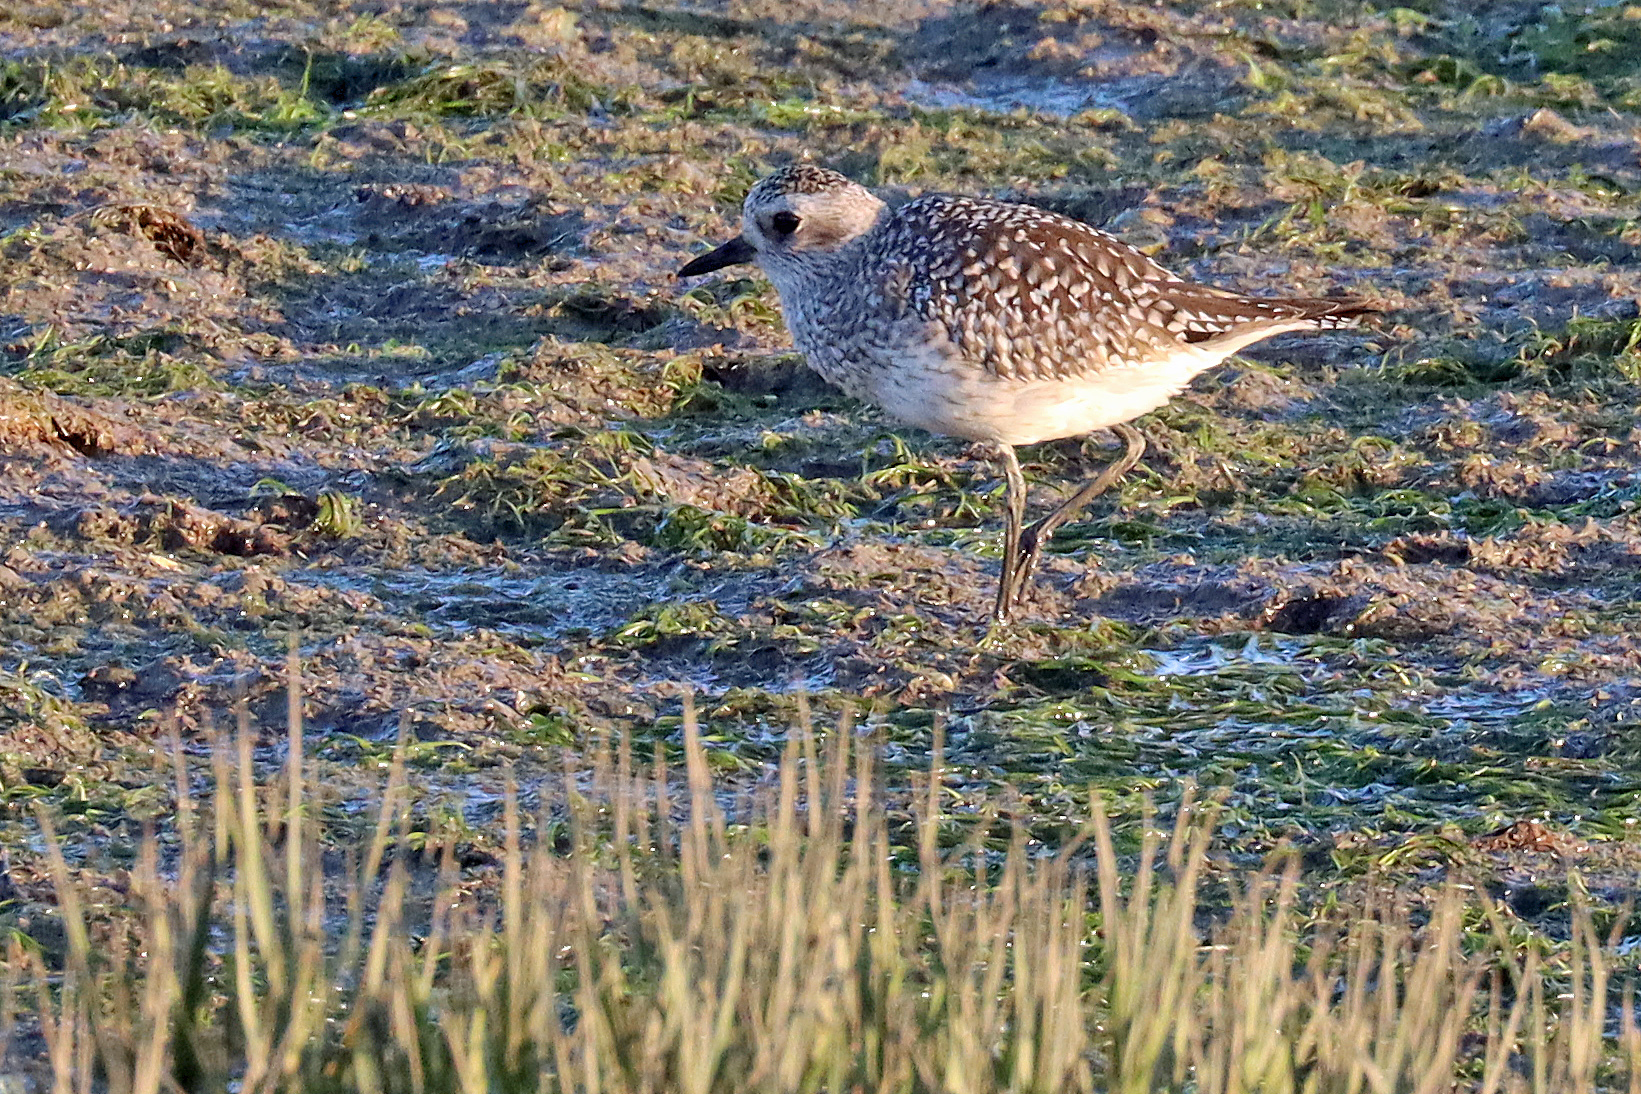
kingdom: Animalia
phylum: Chordata
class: Aves
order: Charadriiformes
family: Charadriidae
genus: Pluvialis
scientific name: Pluvialis squatarola
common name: Grey plover
